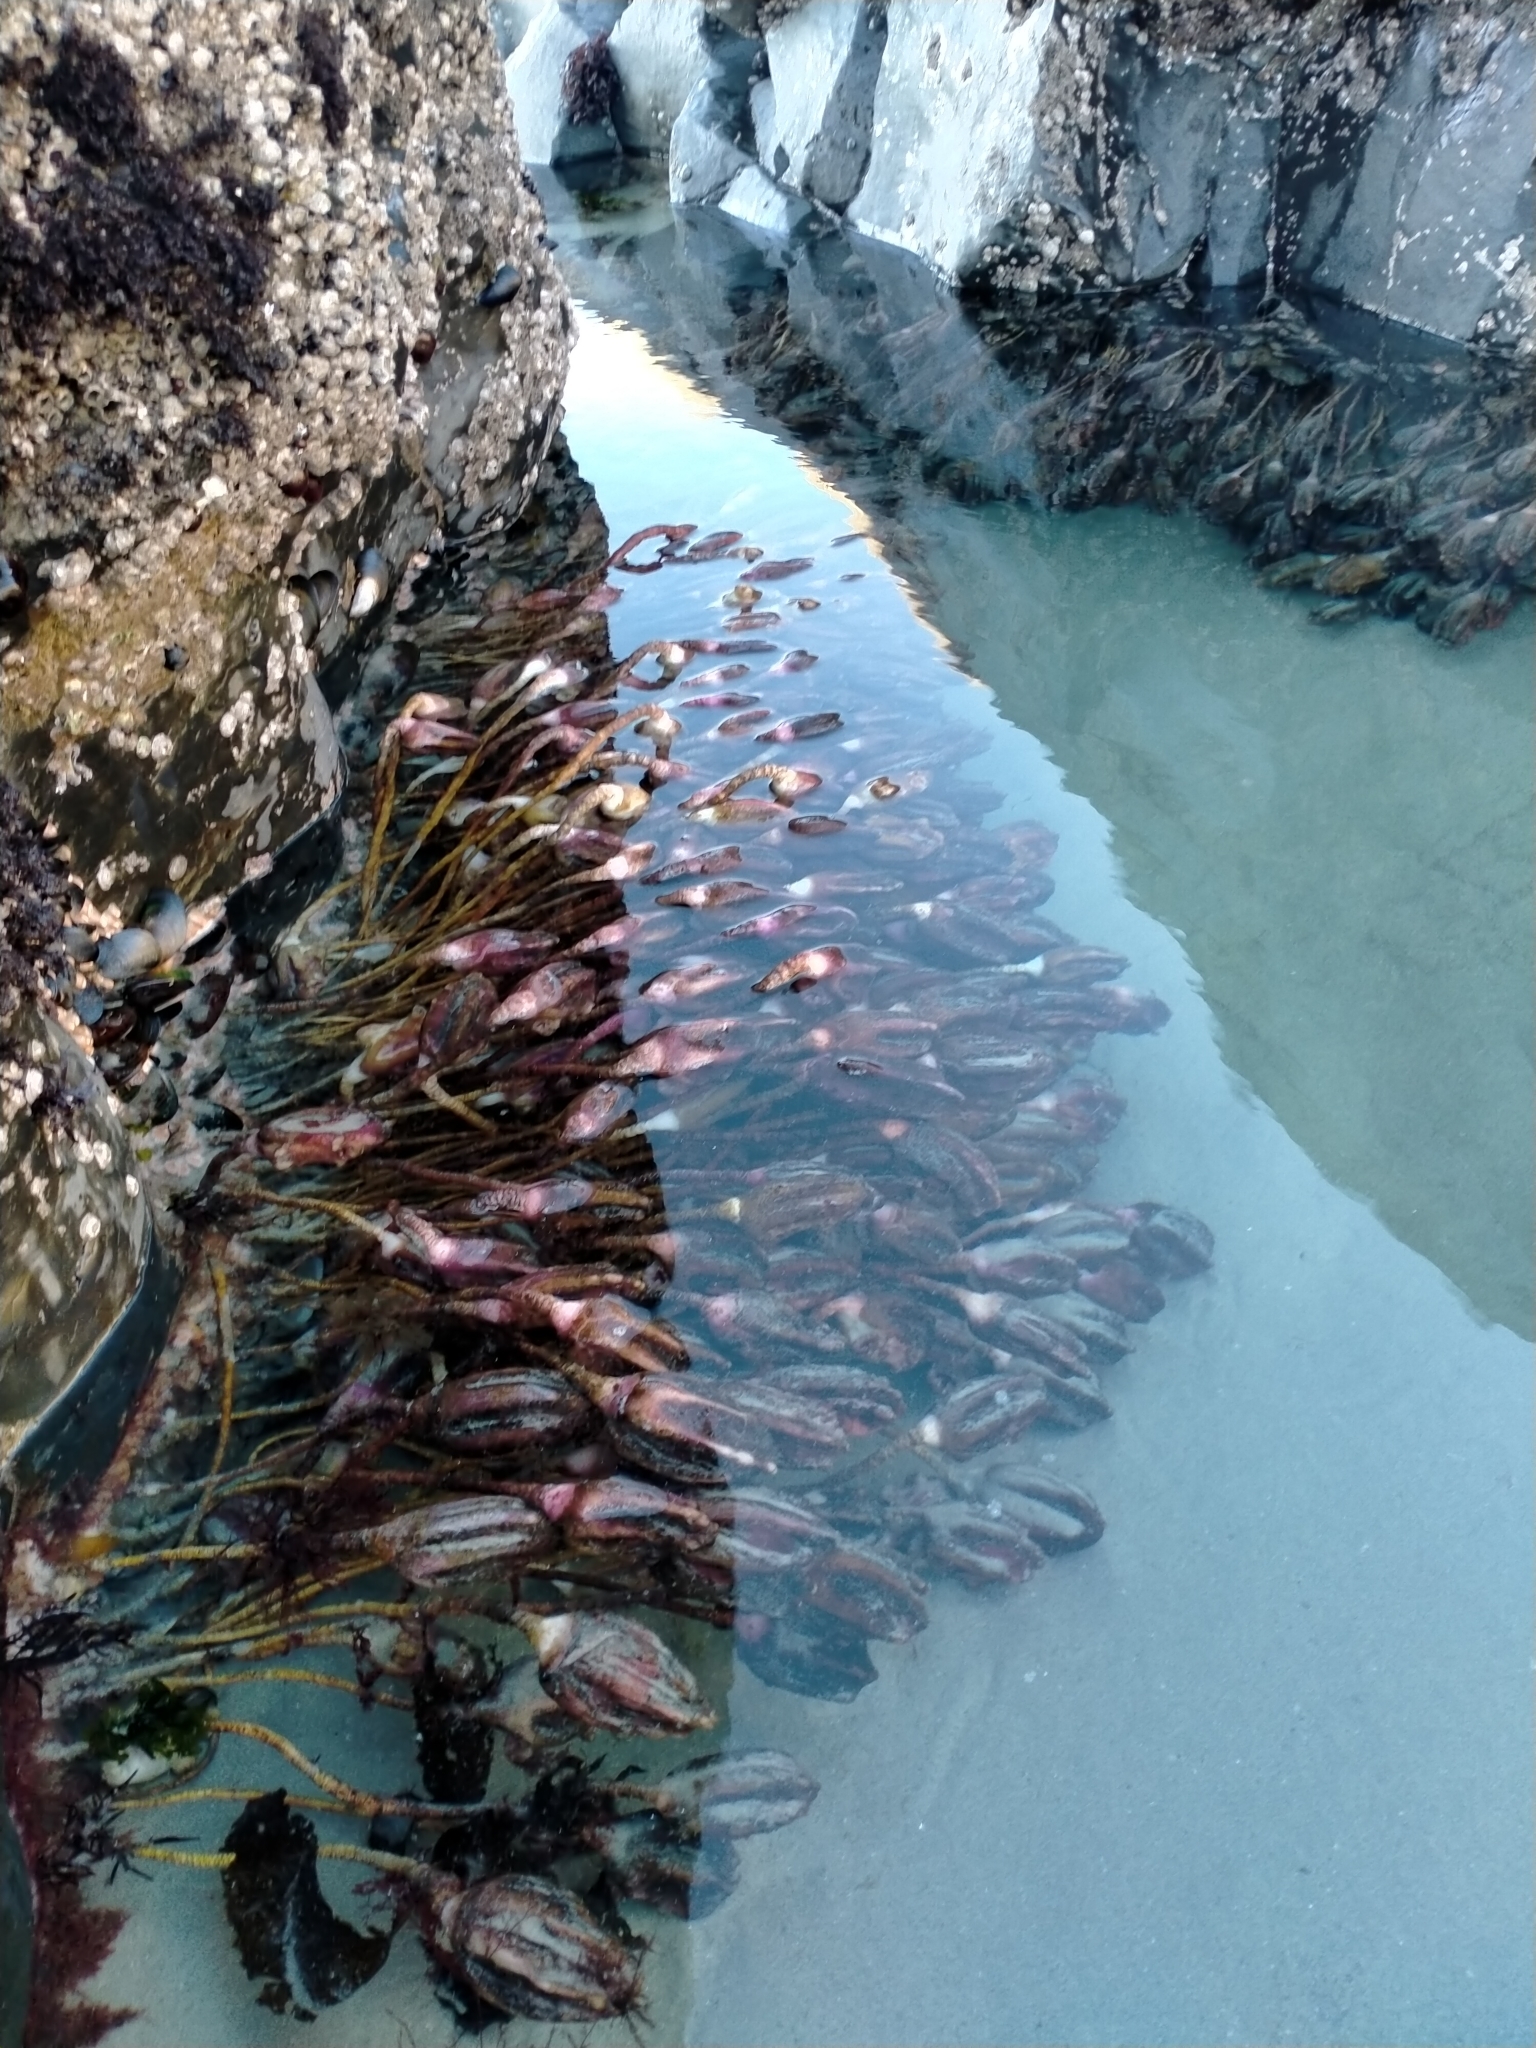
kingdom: Animalia
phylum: Chordata
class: Ascidiacea
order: Stolidobranchia
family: Pyuridae
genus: Pyura
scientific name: Pyura pachydermatina
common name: Sea tulip
